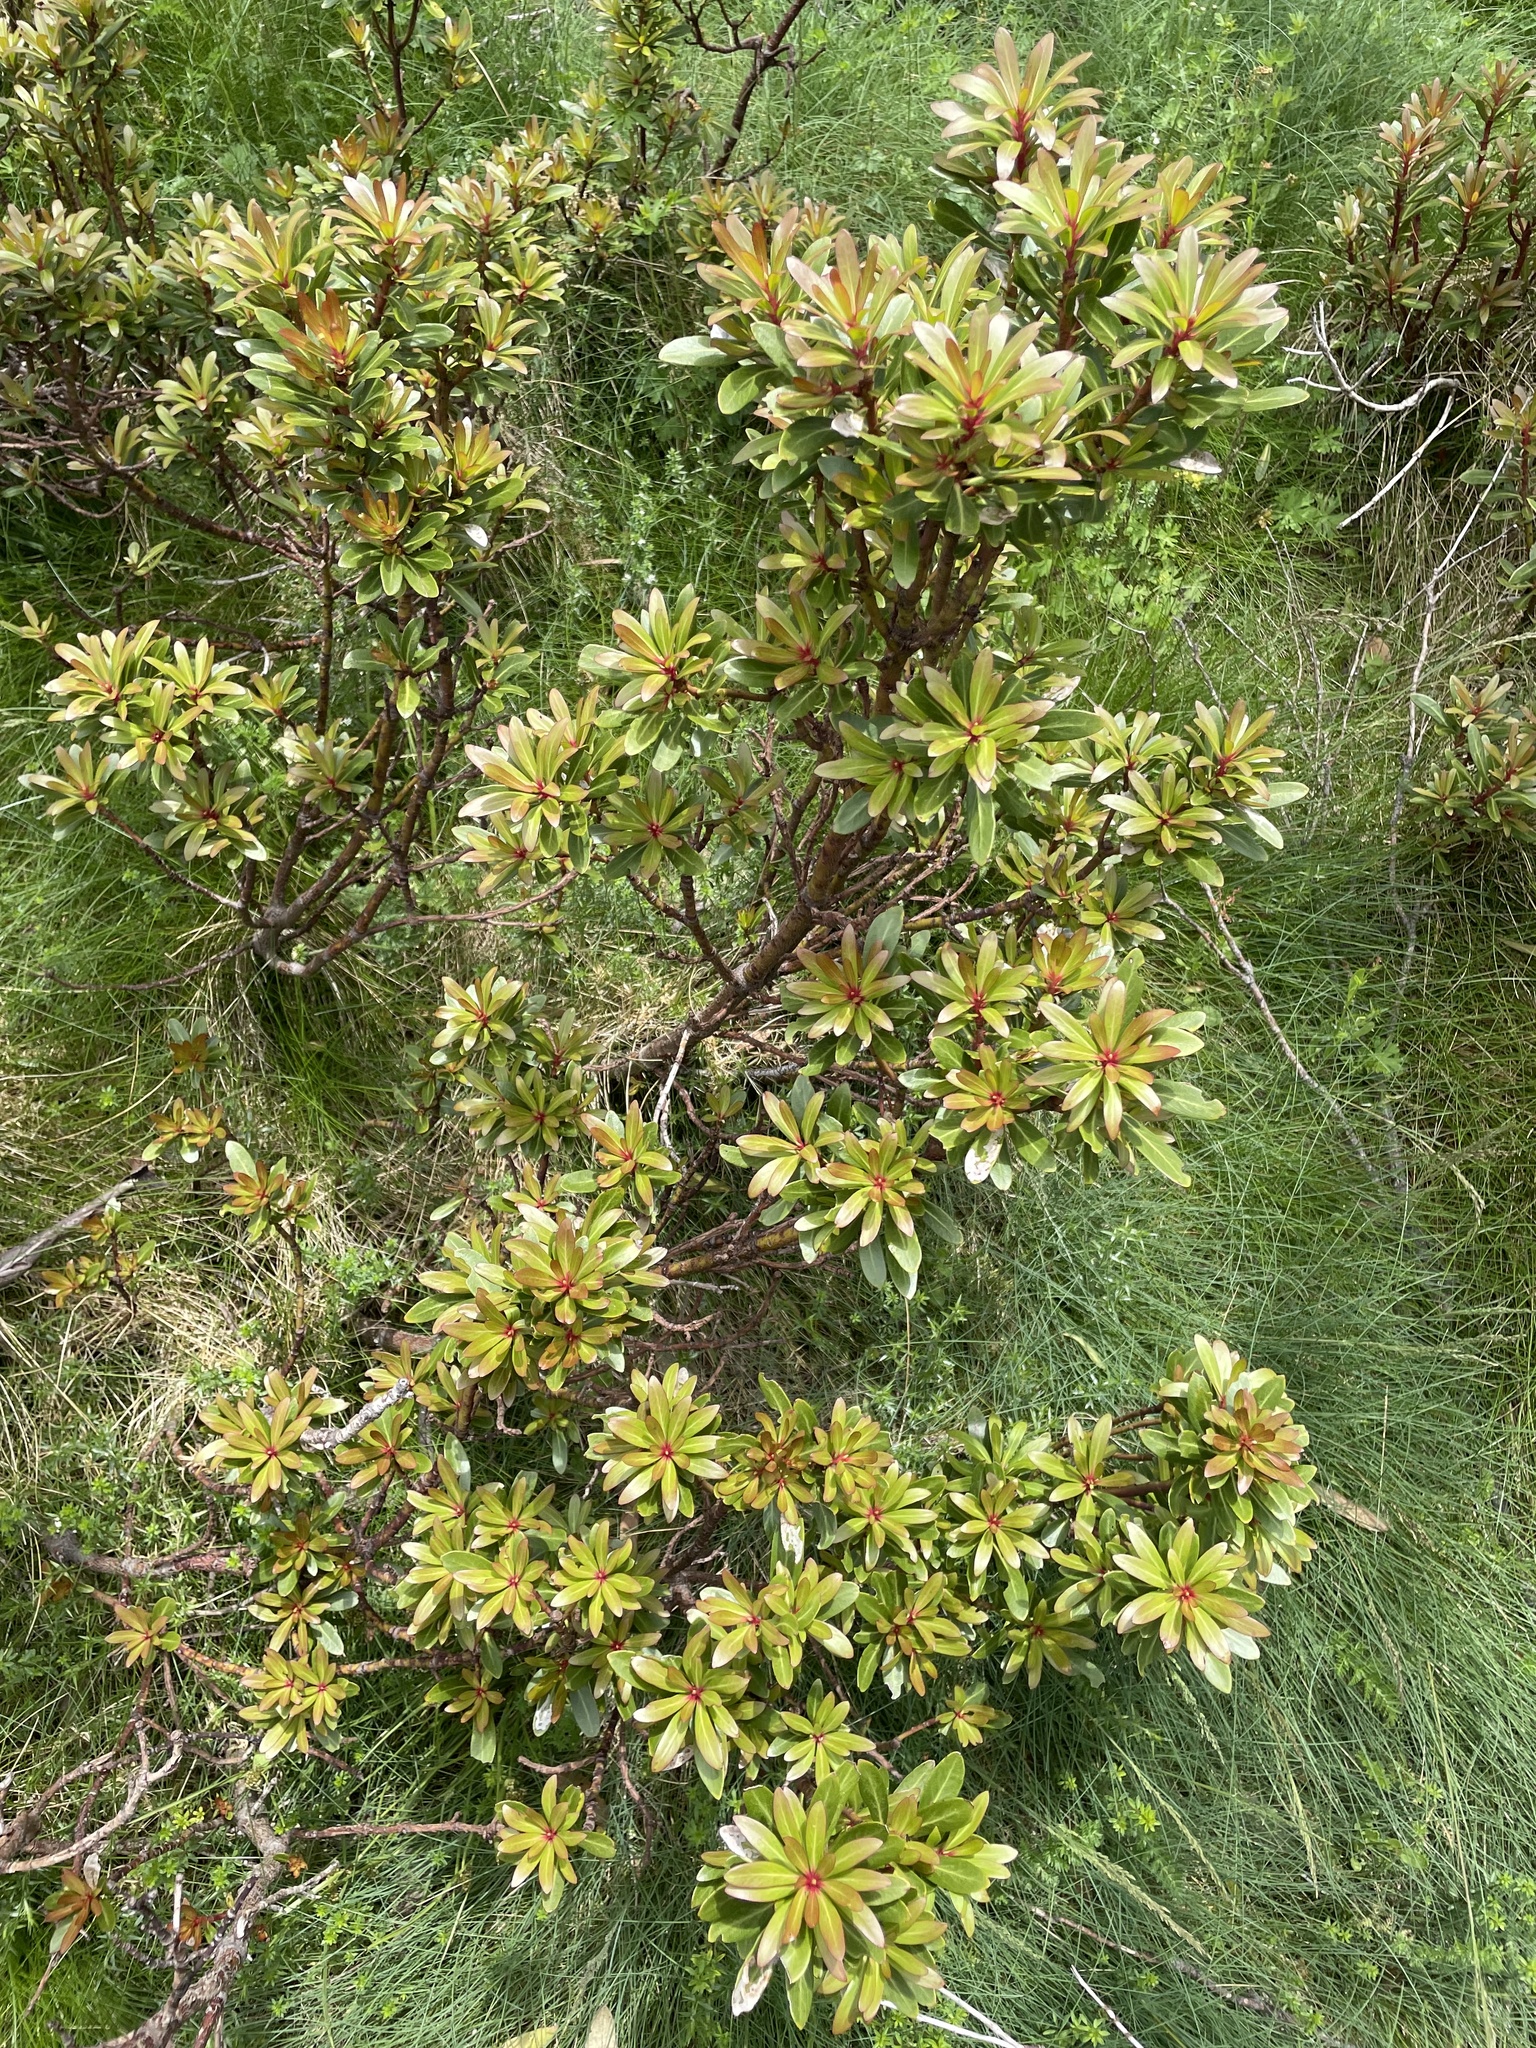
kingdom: Plantae
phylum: Tracheophyta
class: Magnoliopsida
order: Canellales
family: Winteraceae
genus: Drimys
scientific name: Drimys xerophila
